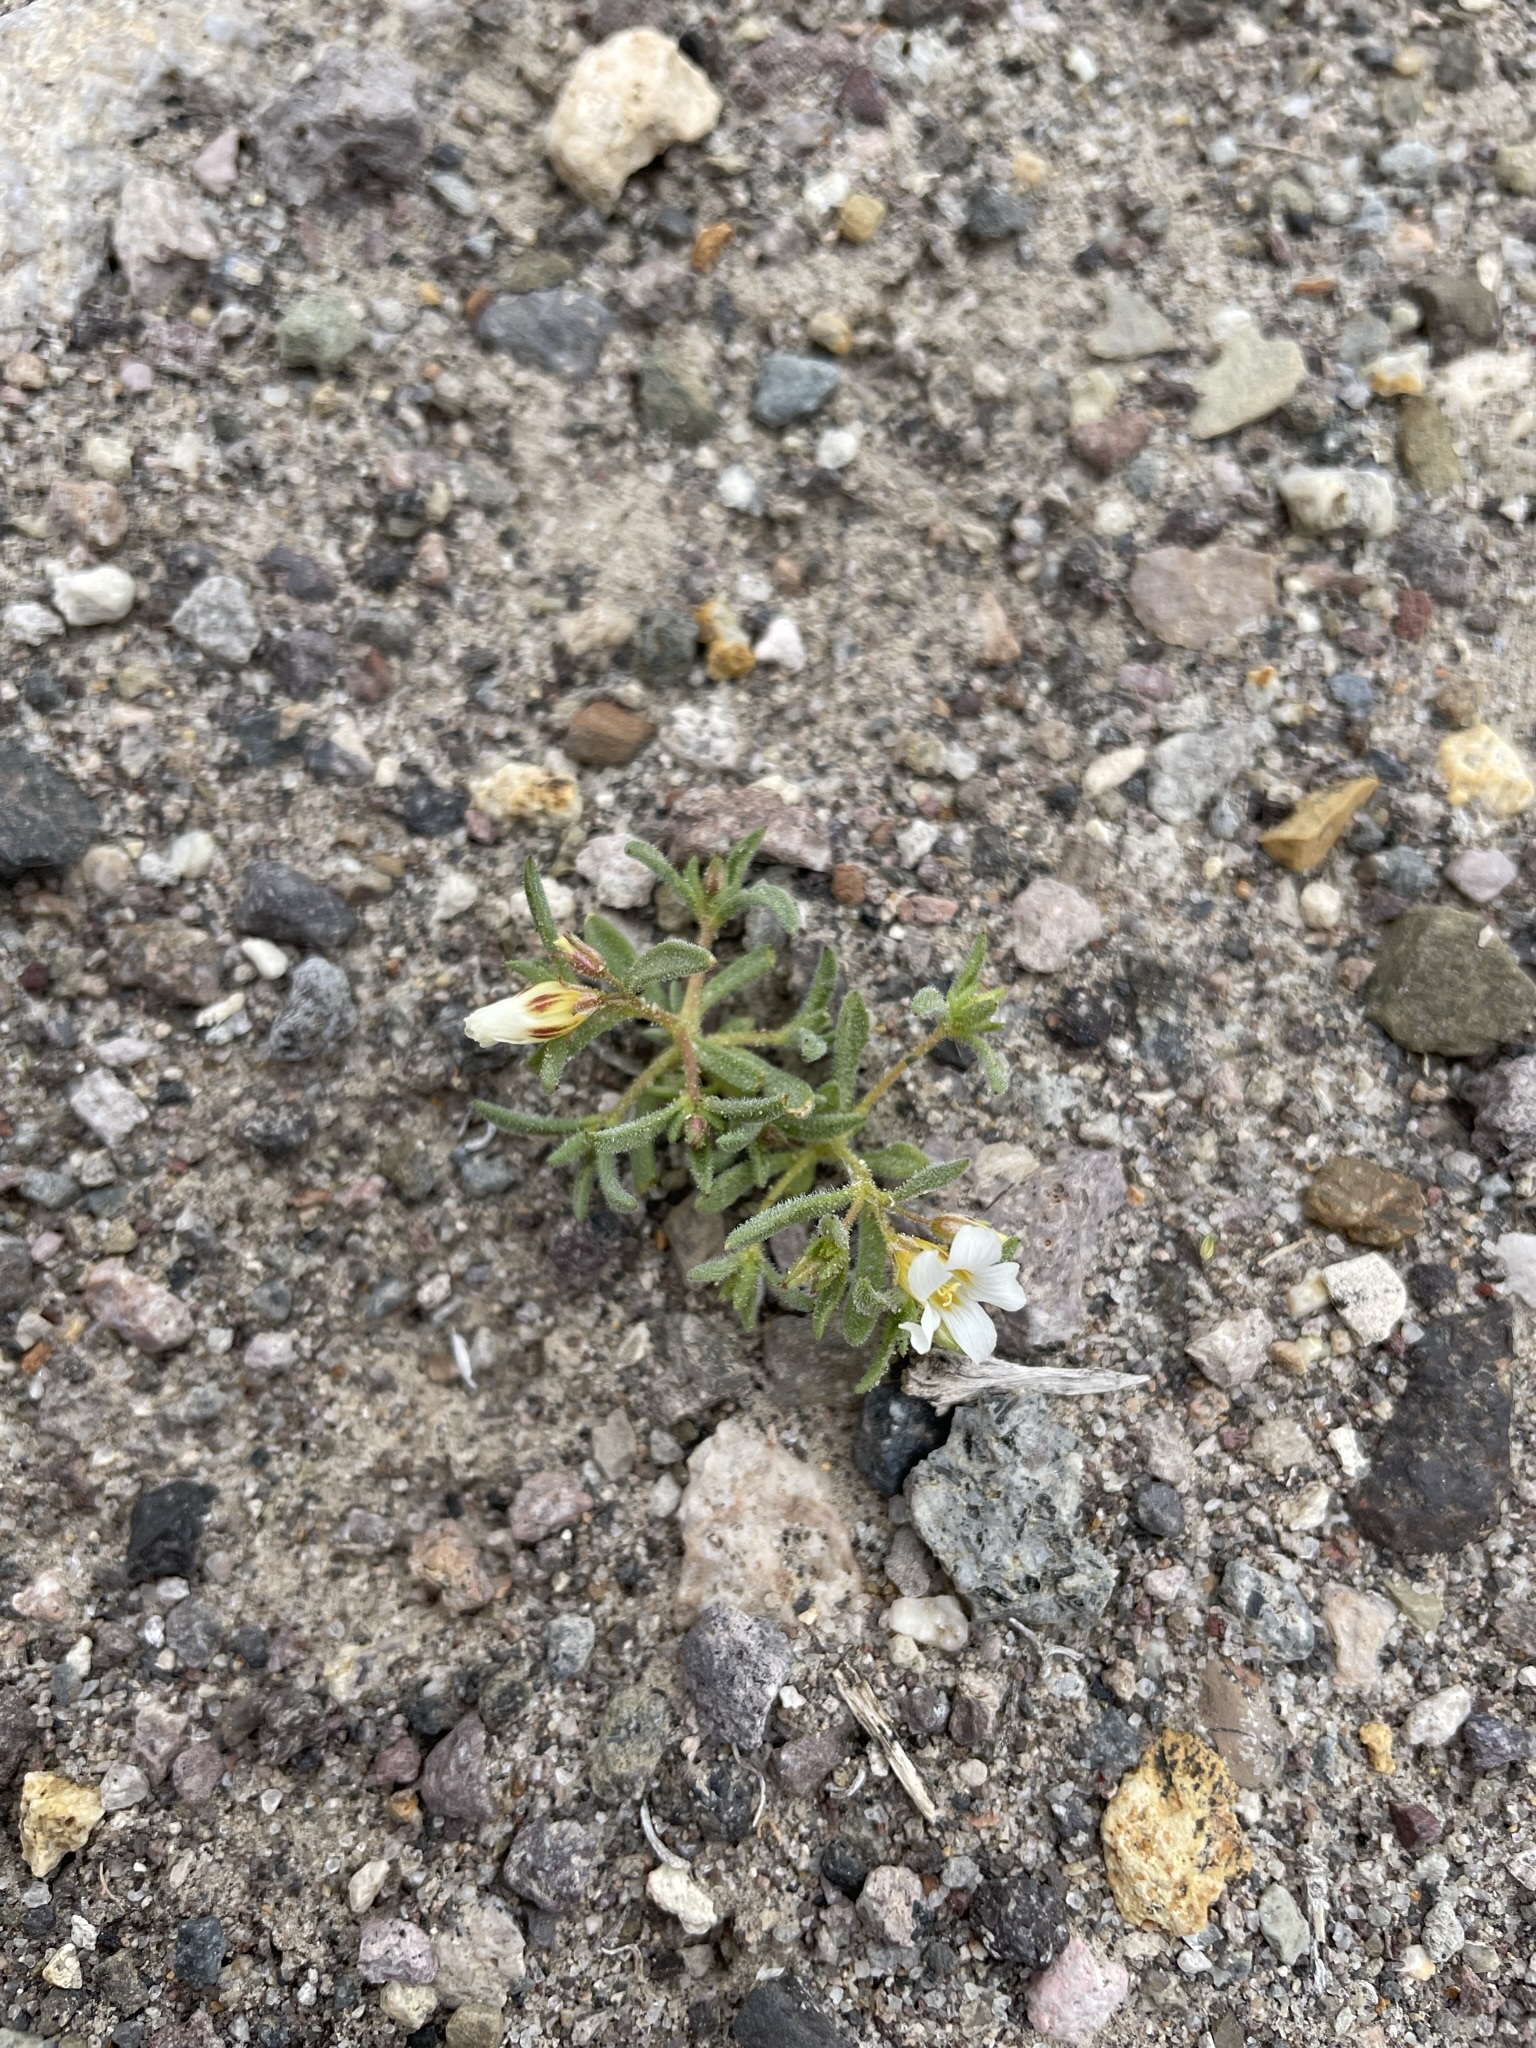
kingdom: Plantae
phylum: Tracheophyta
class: Magnoliopsida
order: Ericales
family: Polemoniaceae
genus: Linanthus
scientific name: Linanthus campanulatus
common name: Bellshape gilia
